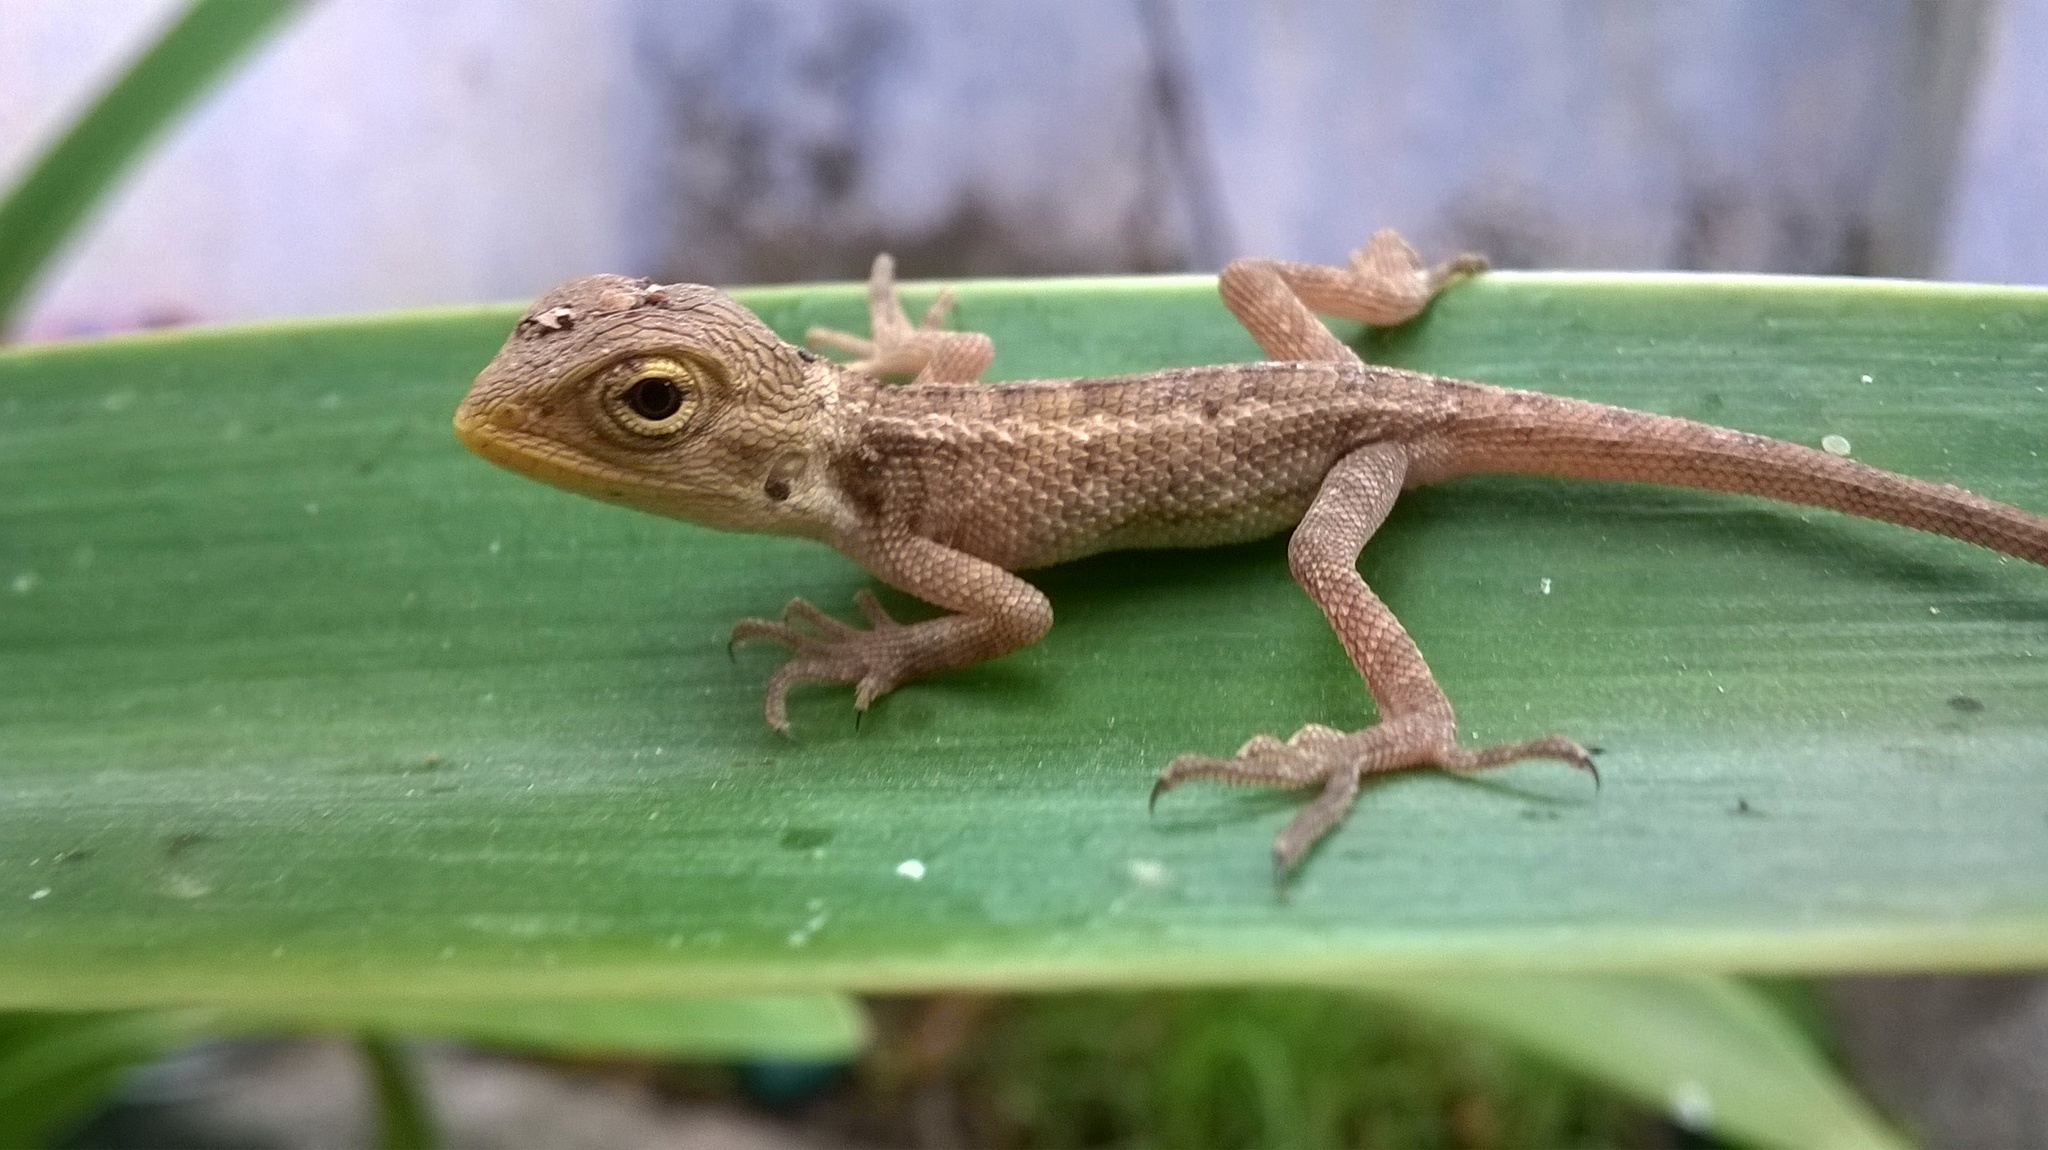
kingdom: Animalia
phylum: Chordata
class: Squamata
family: Agamidae
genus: Calotes
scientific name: Calotes versicolor
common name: Oriental garden lizard
